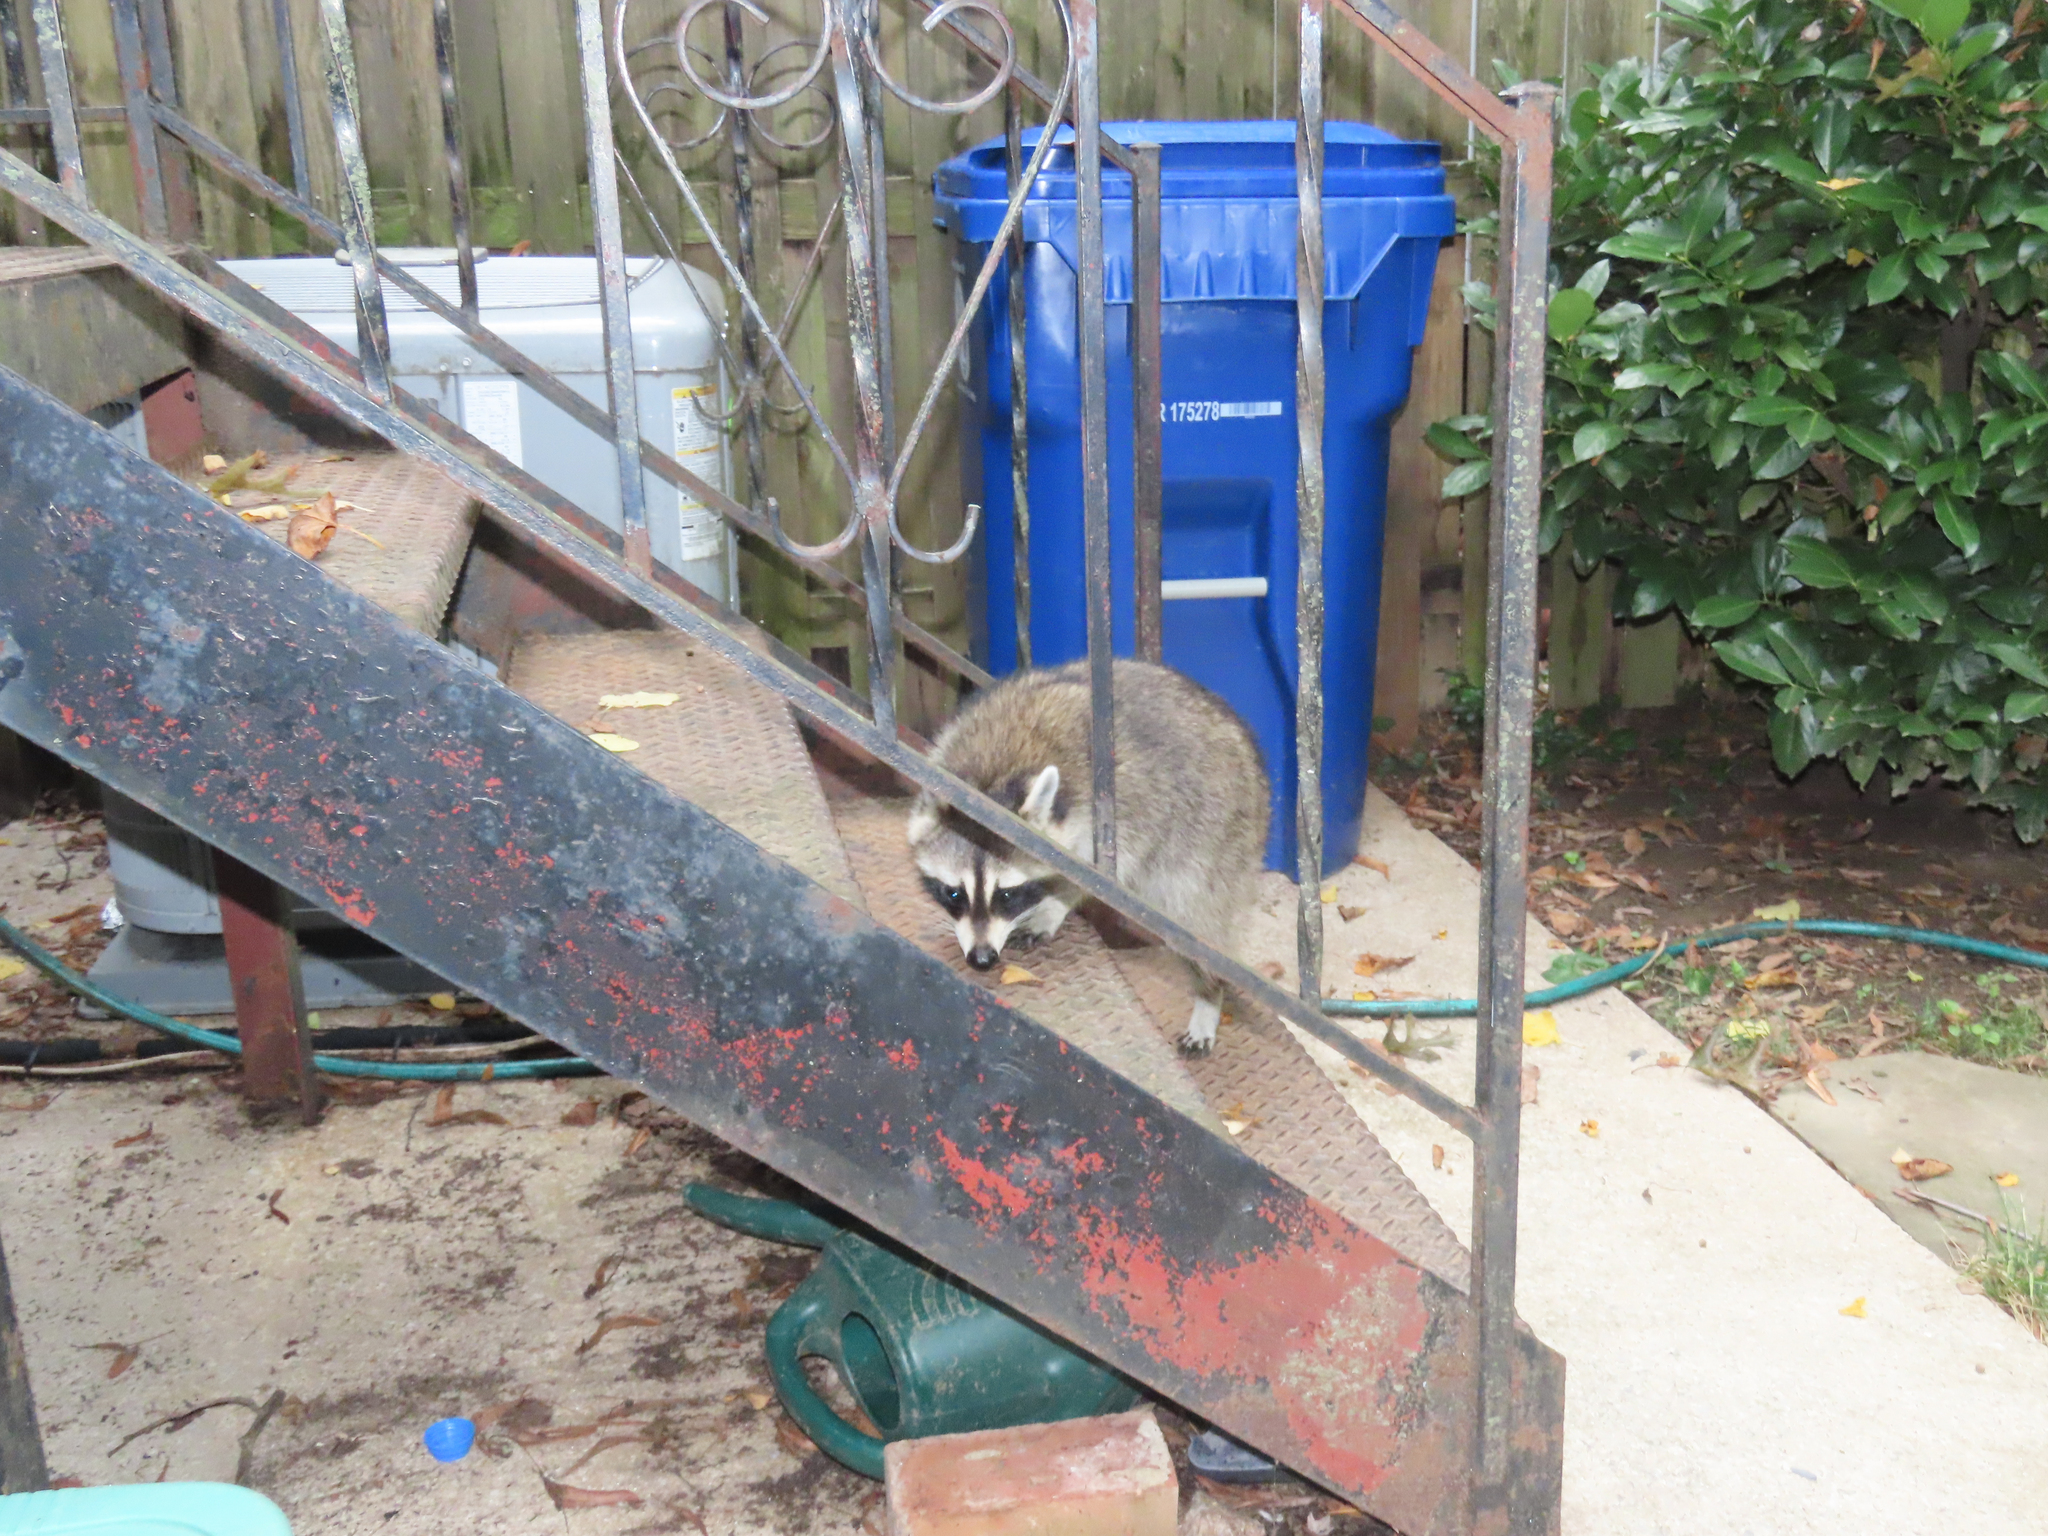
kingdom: Animalia
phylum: Chordata
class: Mammalia
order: Carnivora
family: Procyonidae
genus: Procyon
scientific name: Procyon lotor
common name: Raccoon
